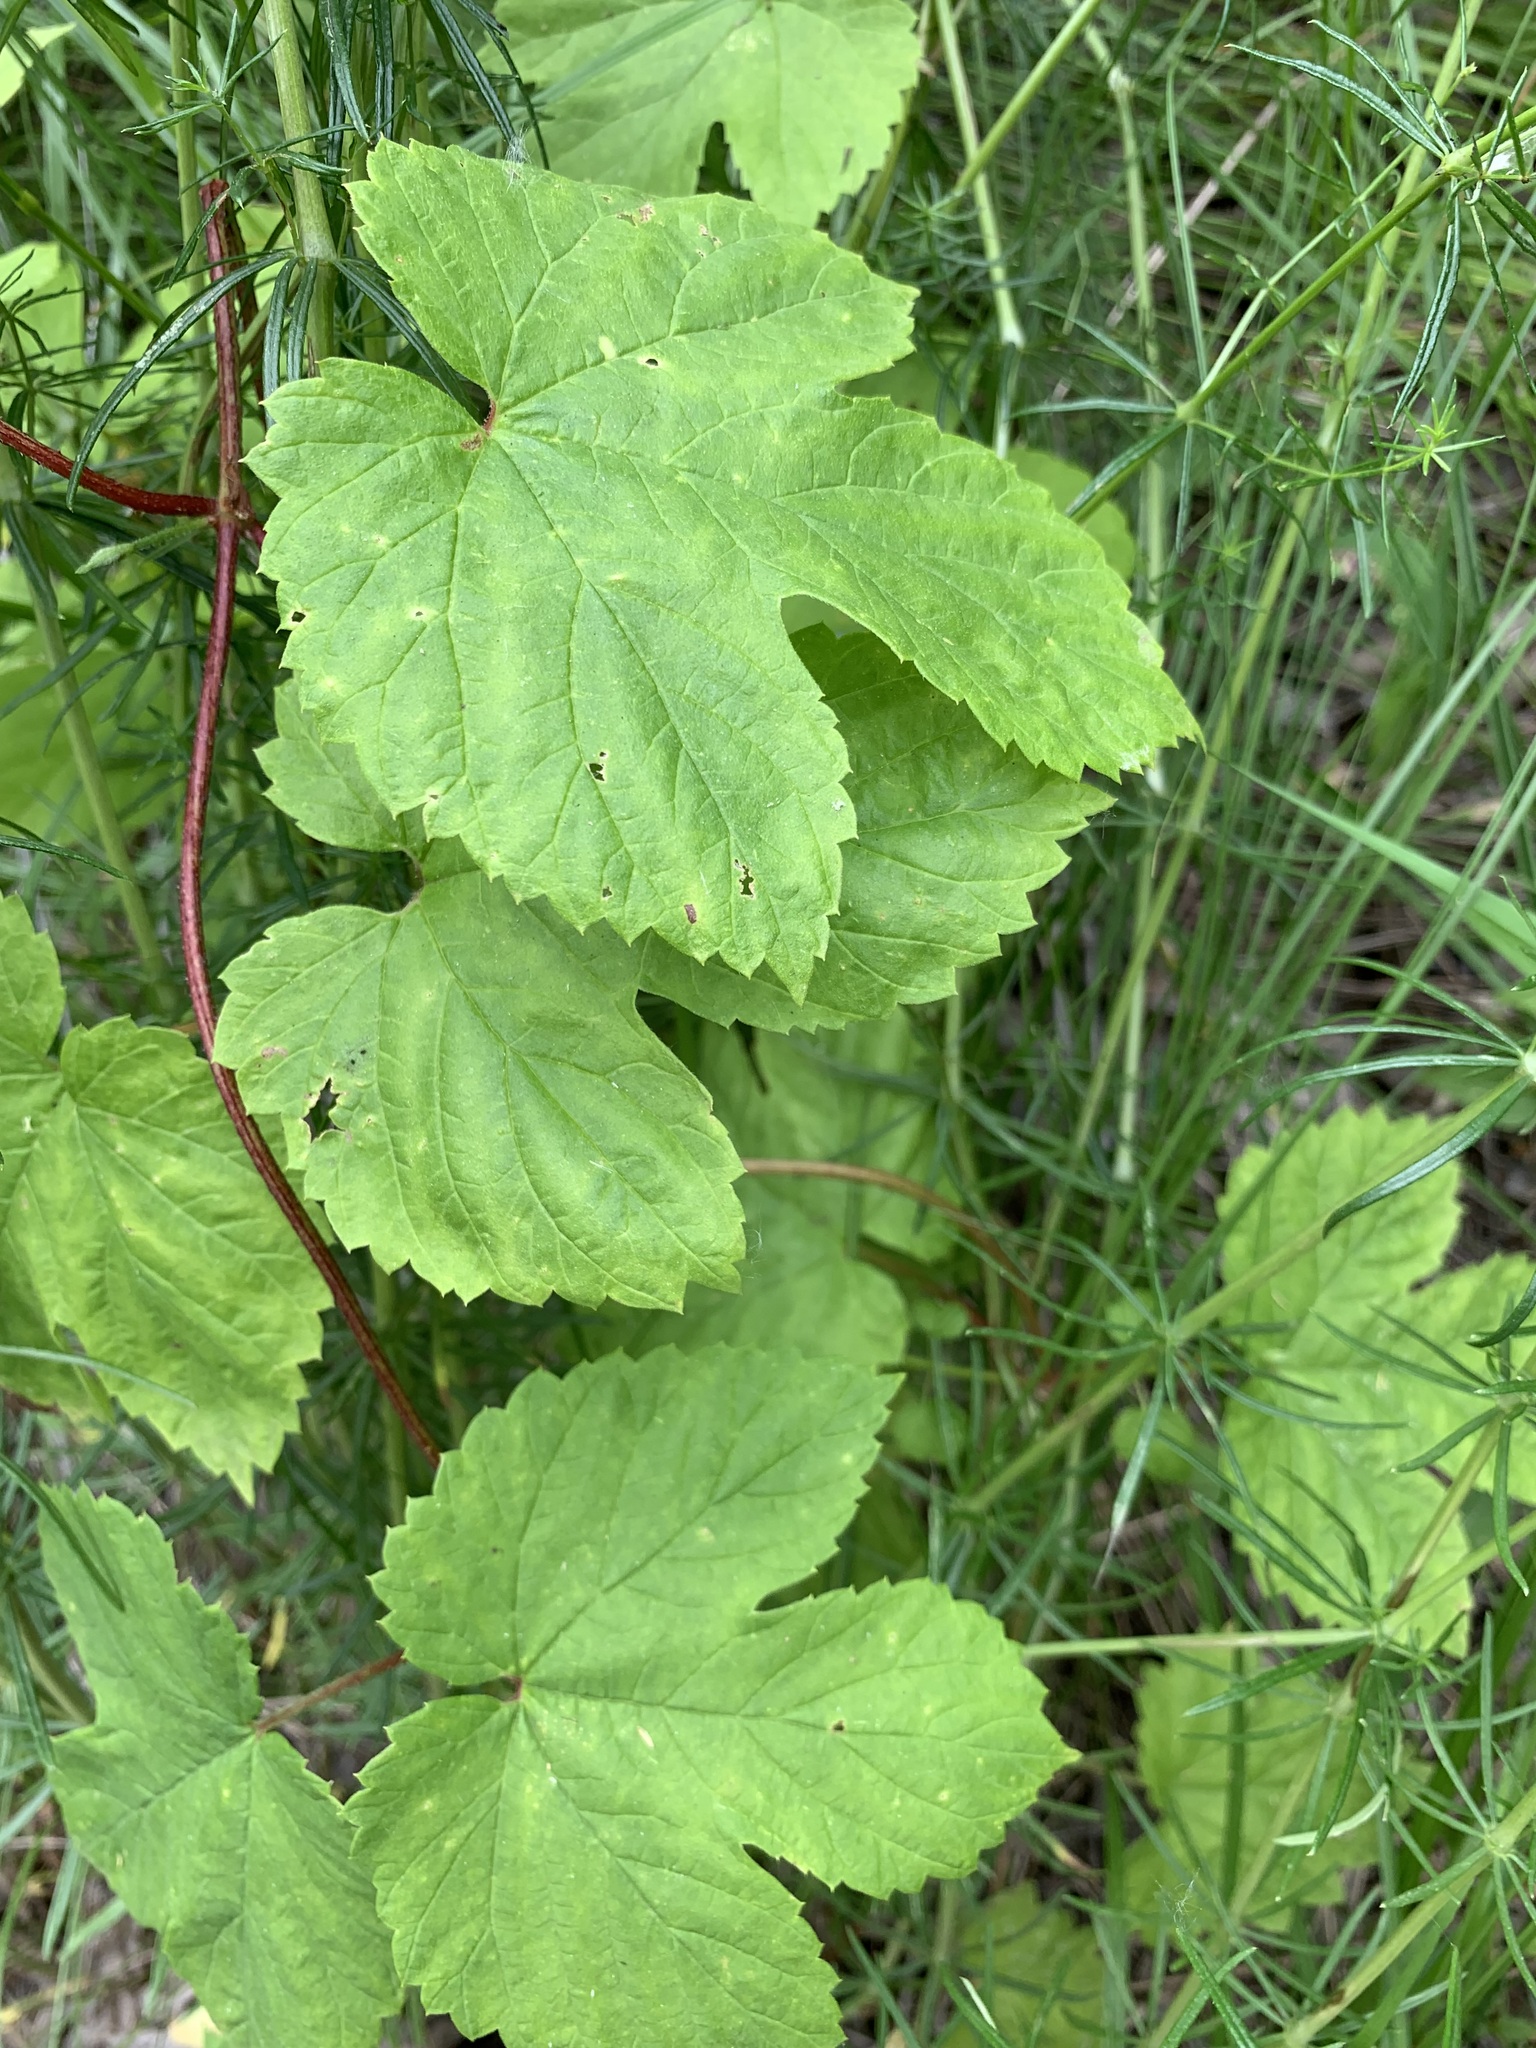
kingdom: Plantae
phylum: Tracheophyta
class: Magnoliopsida
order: Rosales
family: Cannabaceae
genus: Humulus
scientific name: Humulus lupulus
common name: Hop
